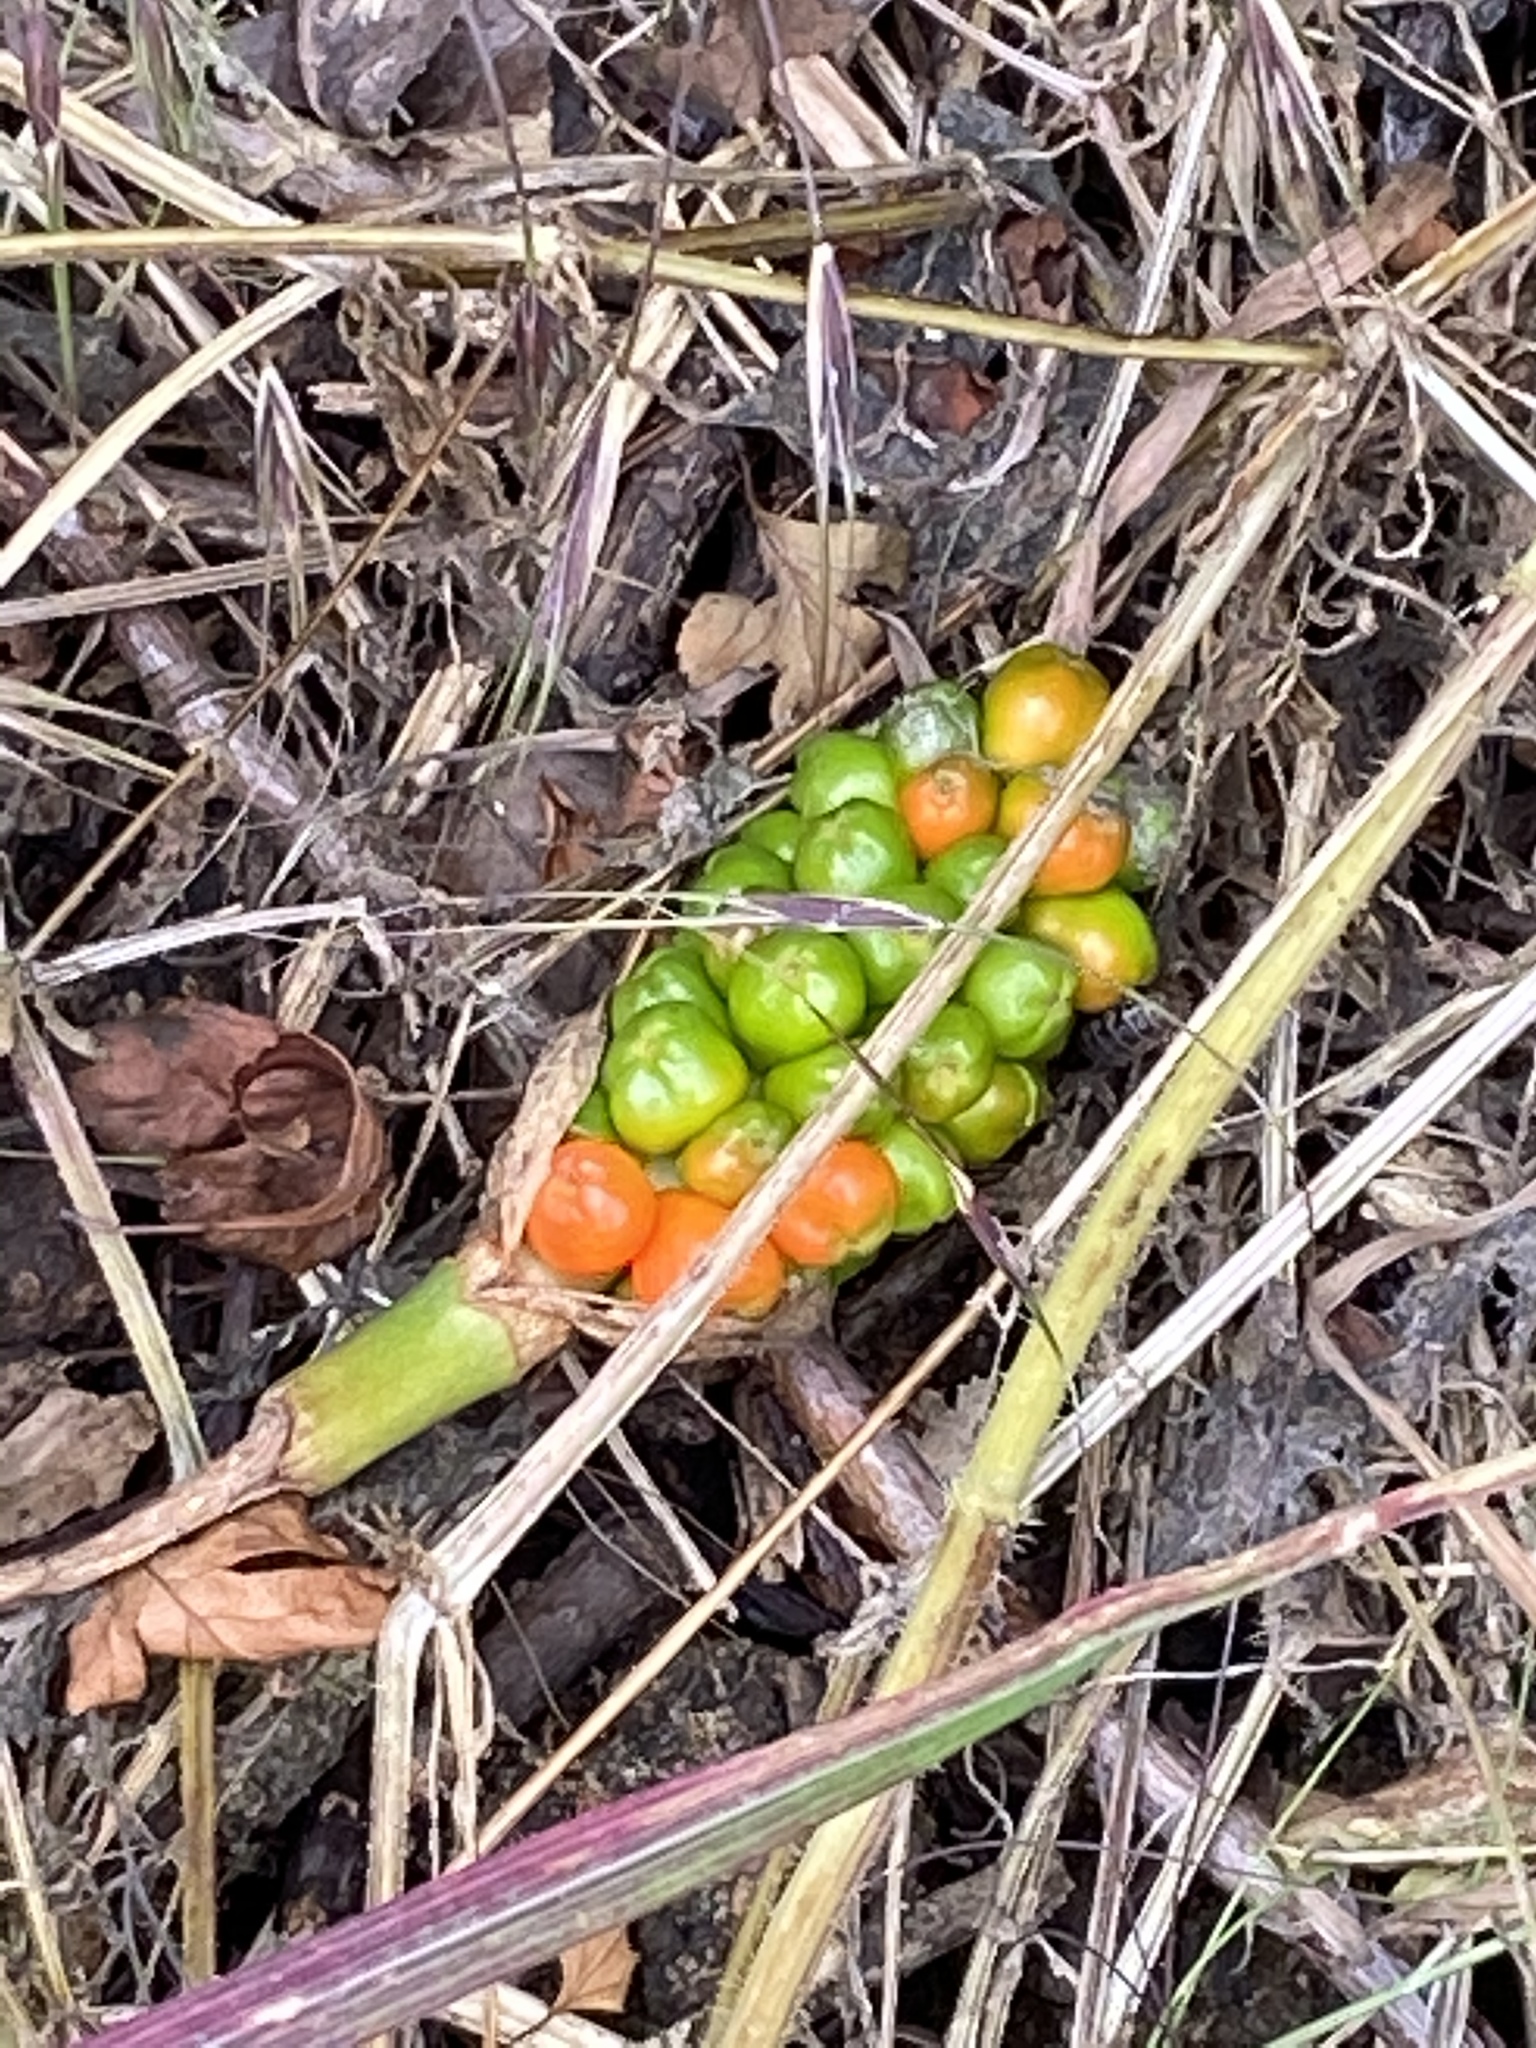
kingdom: Plantae
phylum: Tracheophyta
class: Liliopsida
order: Alismatales
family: Araceae
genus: Arum
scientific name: Arum maculatum
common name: Lords-and-ladies
